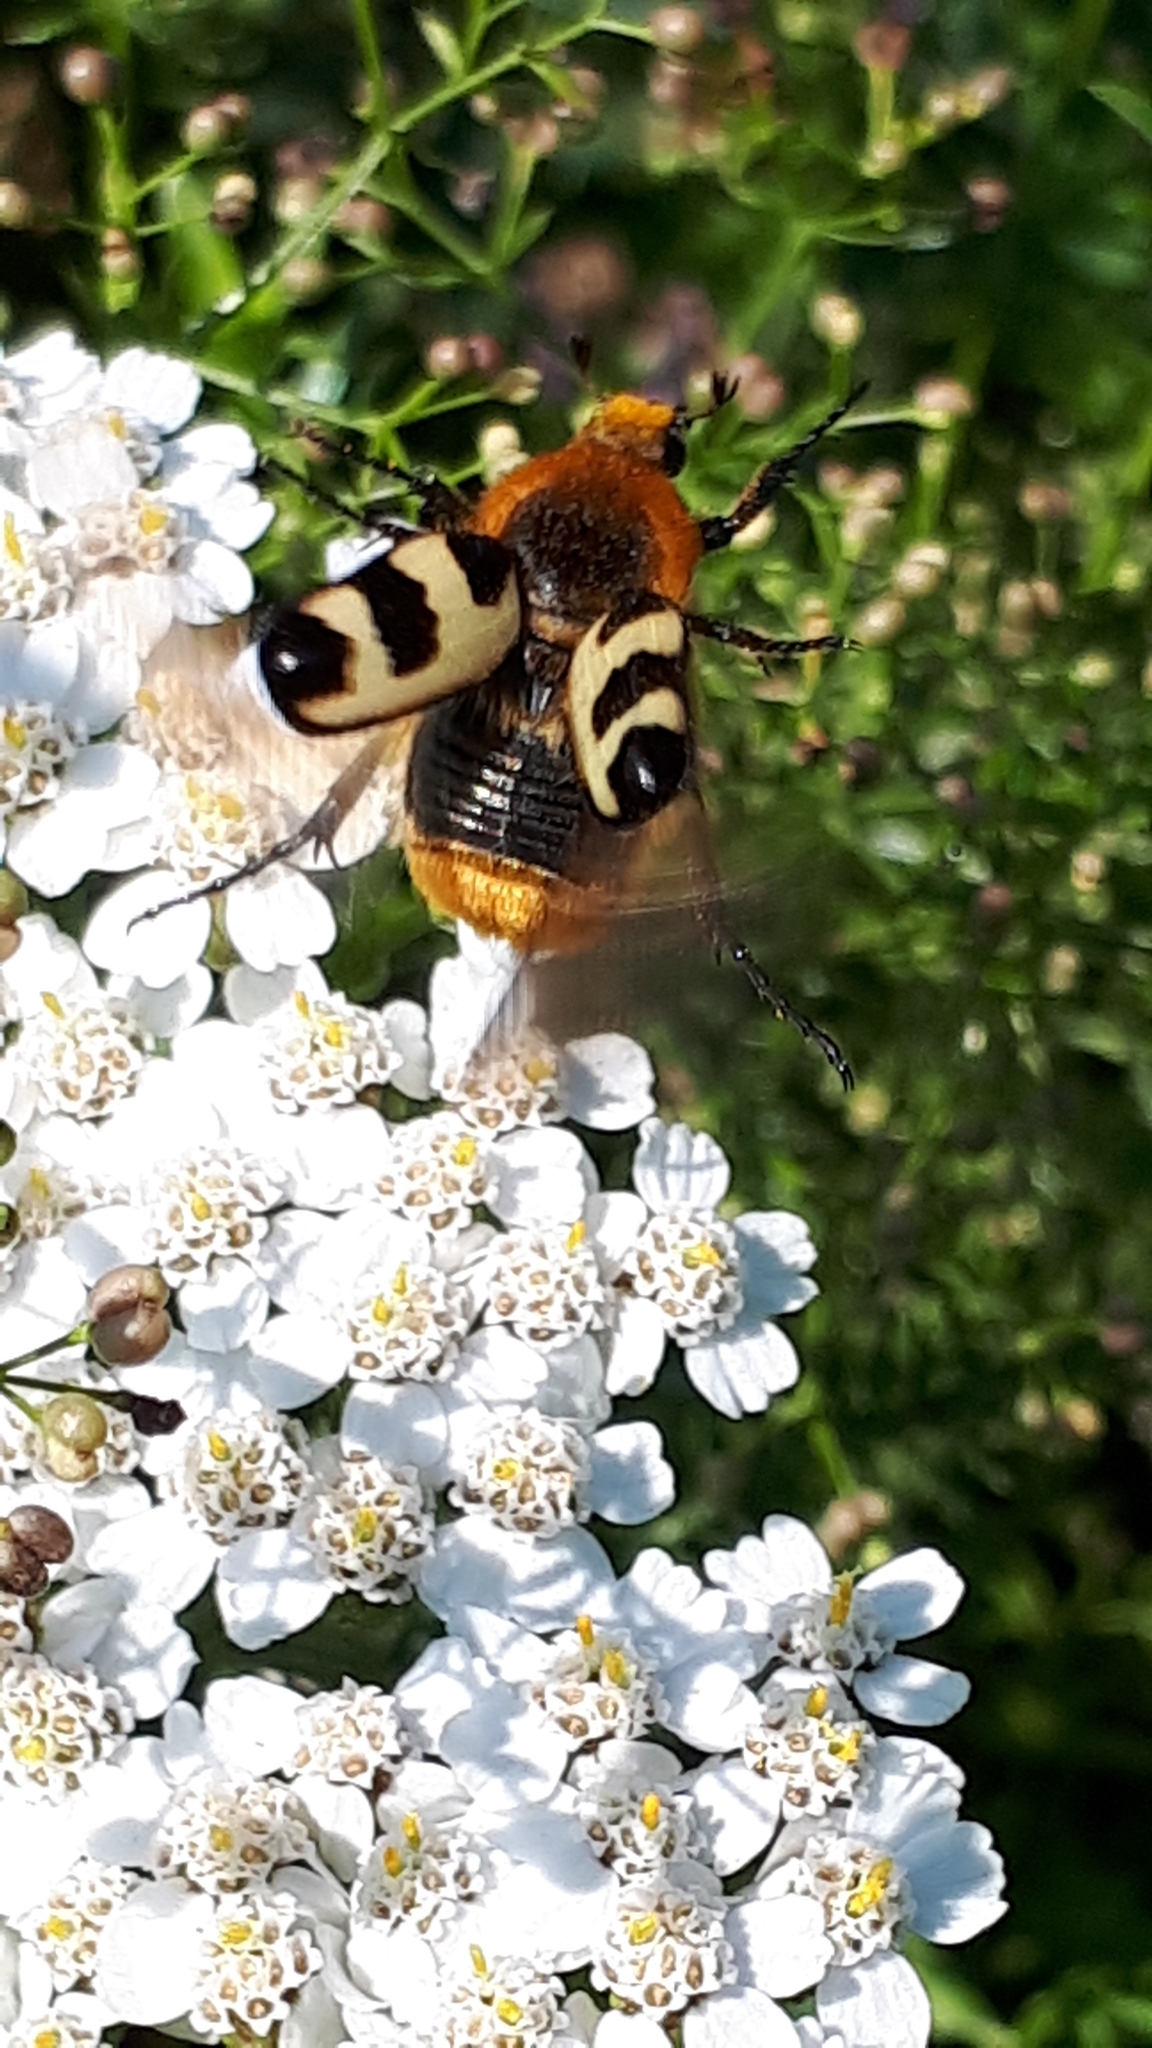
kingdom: Animalia
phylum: Arthropoda
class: Insecta
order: Coleoptera
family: Scarabaeidae
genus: Trichius
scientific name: Trichius gallicus
